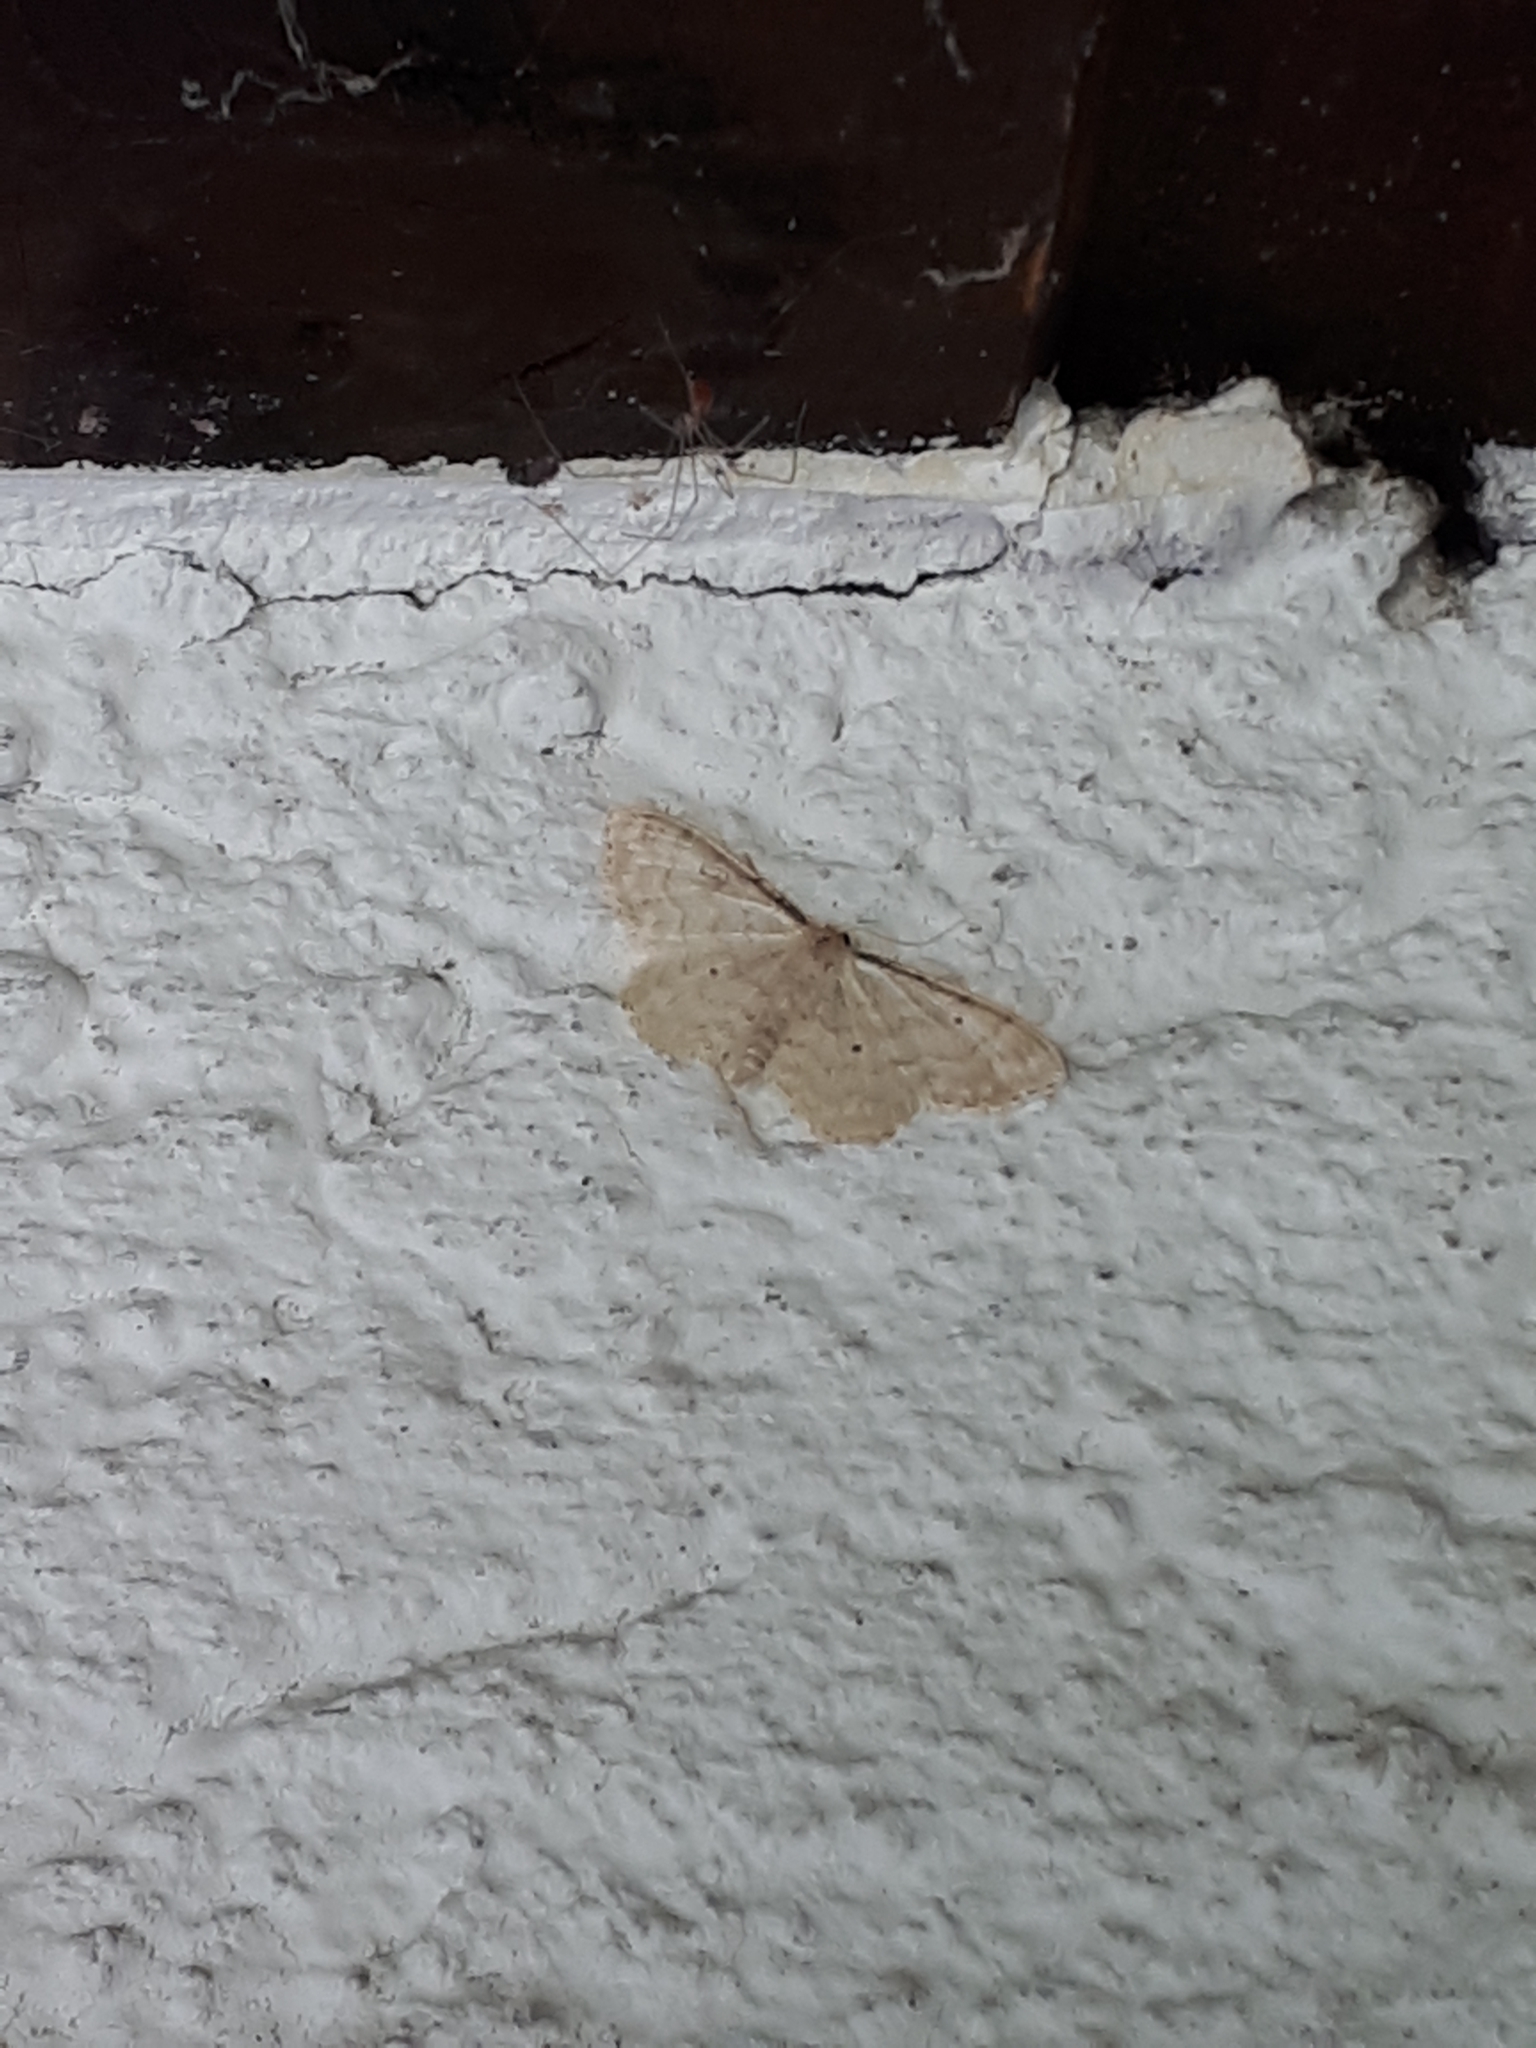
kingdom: Animalia
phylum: Arthropoda
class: Insecta
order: Lepidoptera
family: Geometridae
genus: Idaea
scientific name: Idaea fuscovenosa
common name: Dwarf cream wave
